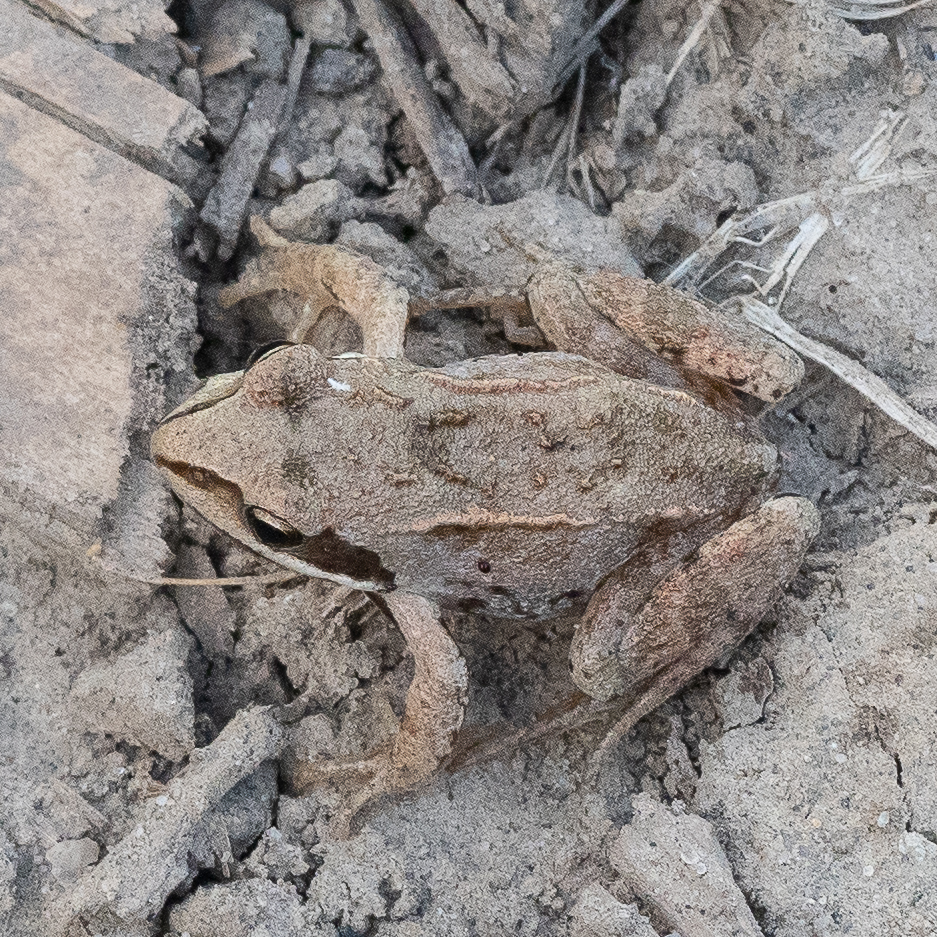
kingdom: Animalia
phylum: Chordata
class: Amphibia
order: Anura
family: Ranidae
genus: Rana
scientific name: Rana arvalis
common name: Moor frog
